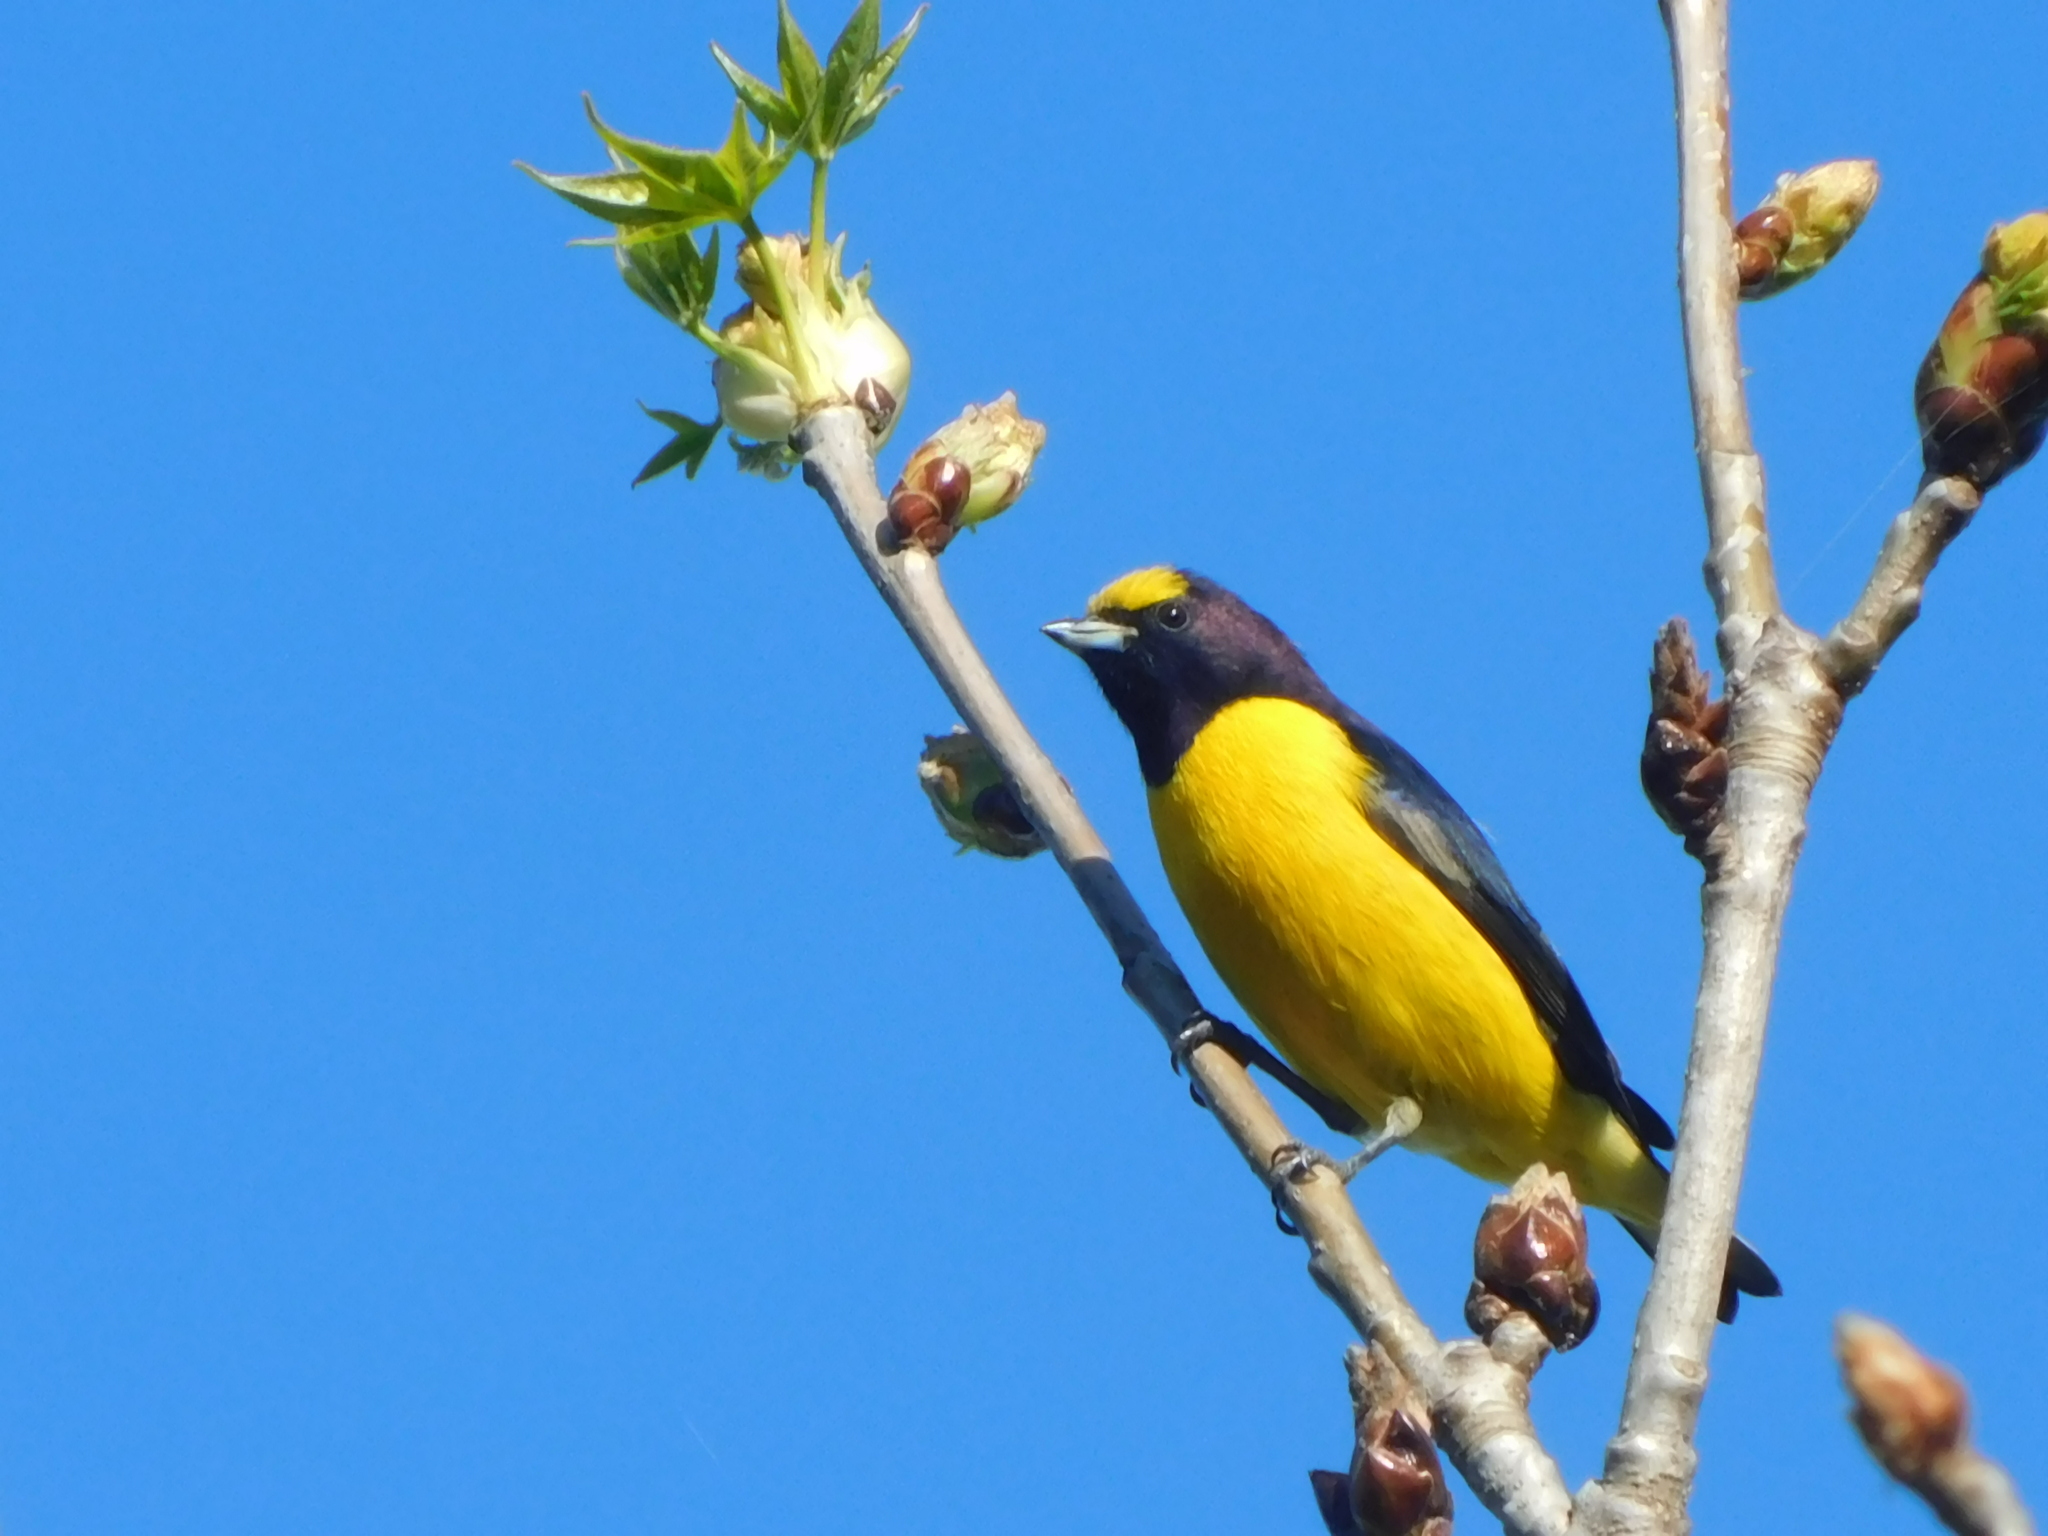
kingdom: Animalia
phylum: Chordata
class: Aves
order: Passeriformes
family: Fringillidae
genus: Euphonia
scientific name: Euphonia chlorotica
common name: Purple-throated euphonia
